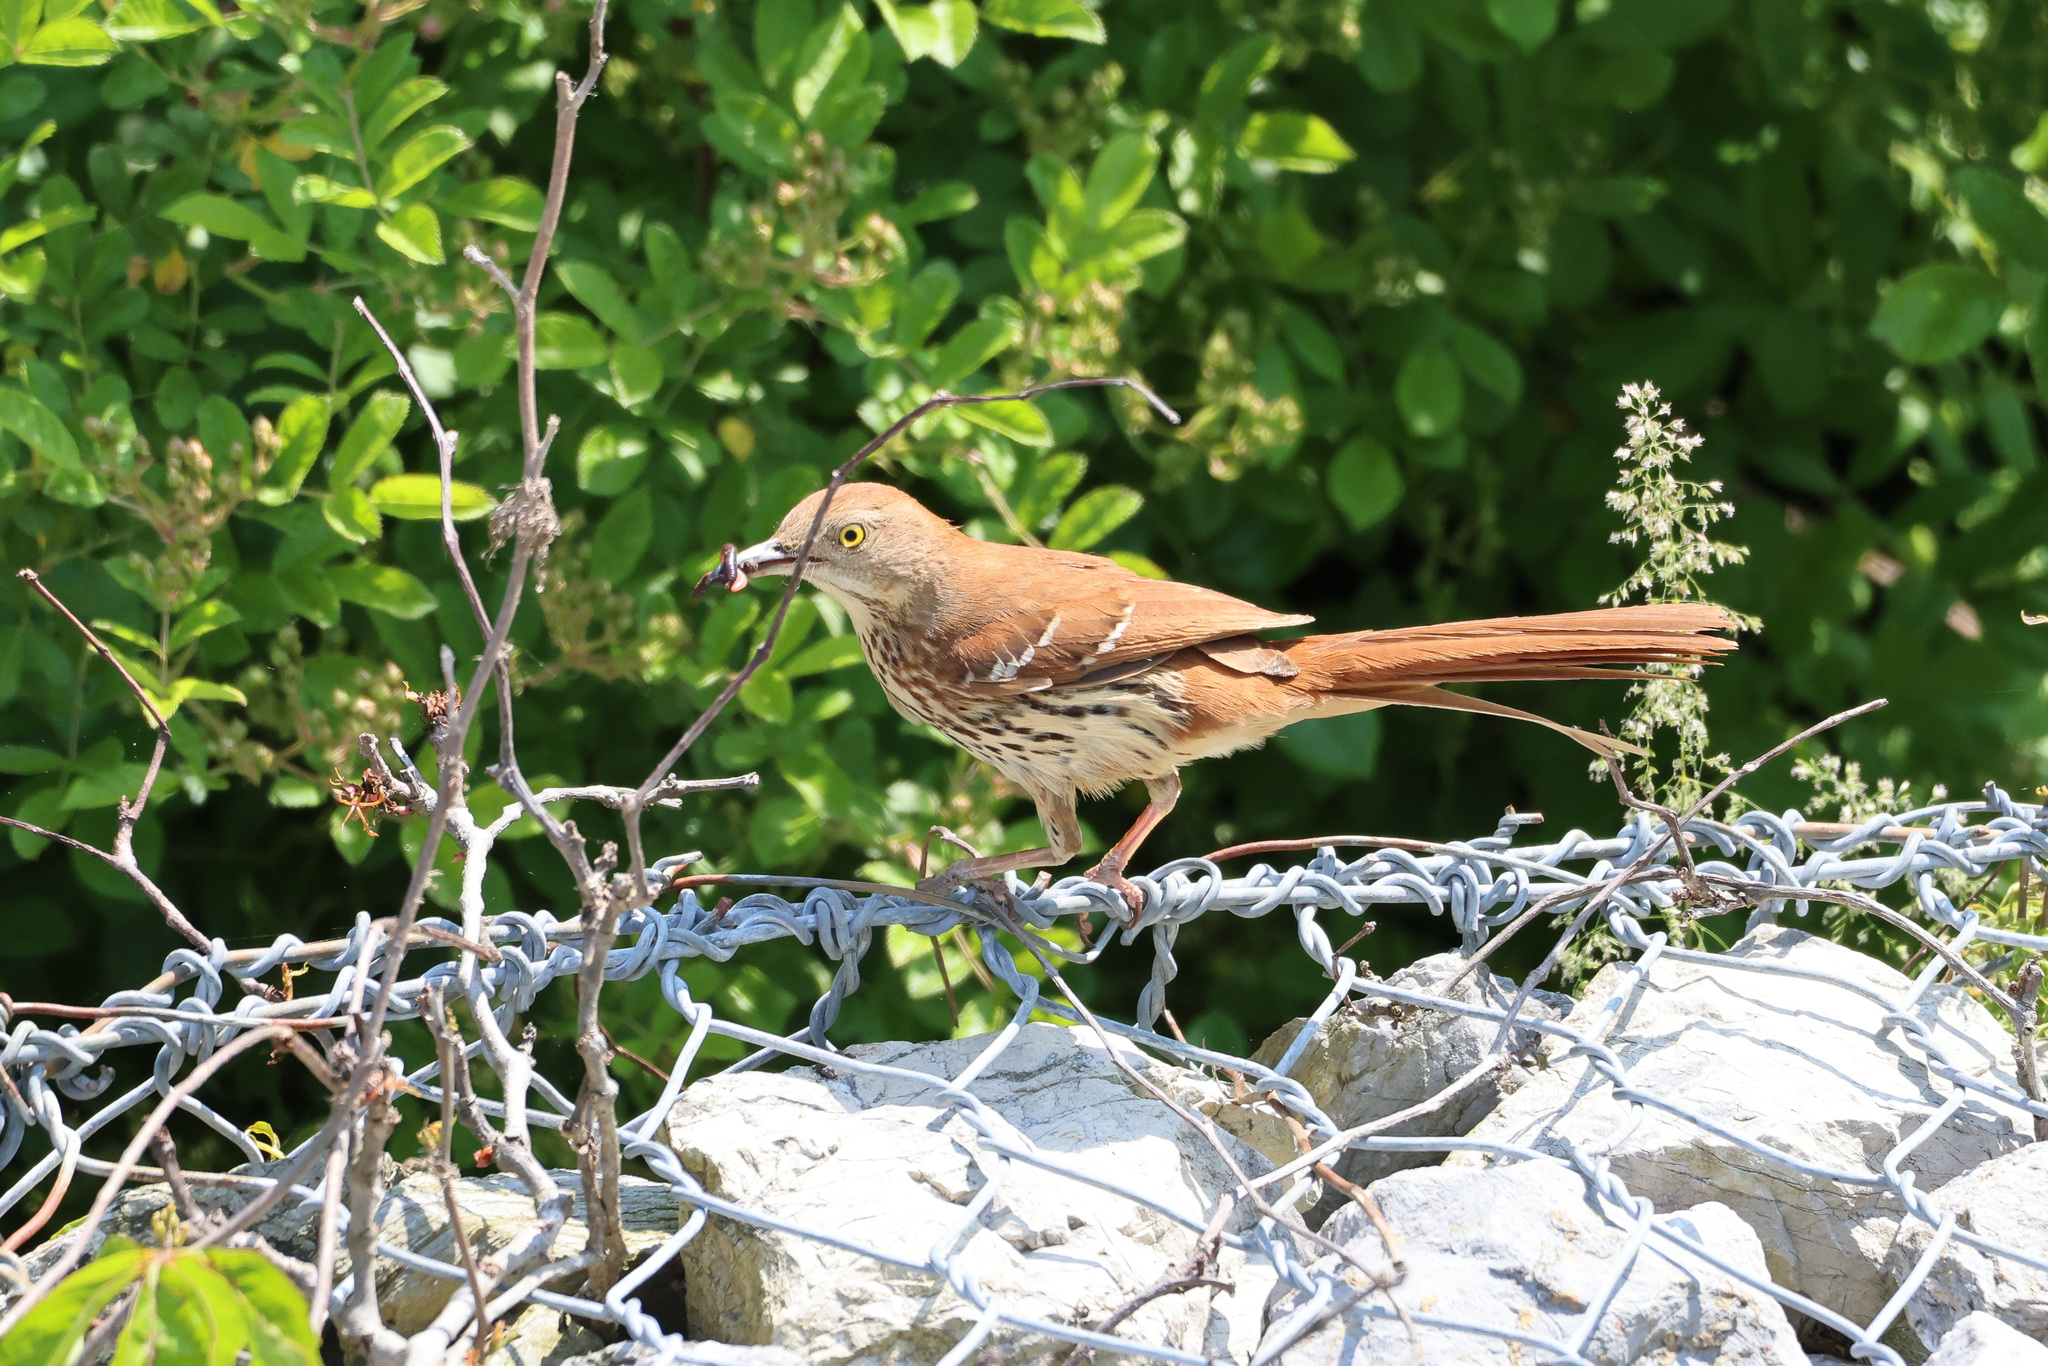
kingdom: Animalia
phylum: Chordata
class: Aves
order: Passeriformes
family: Mimidae
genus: Toxostoma
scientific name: Toxostoma rufum
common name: Brown thrasher
